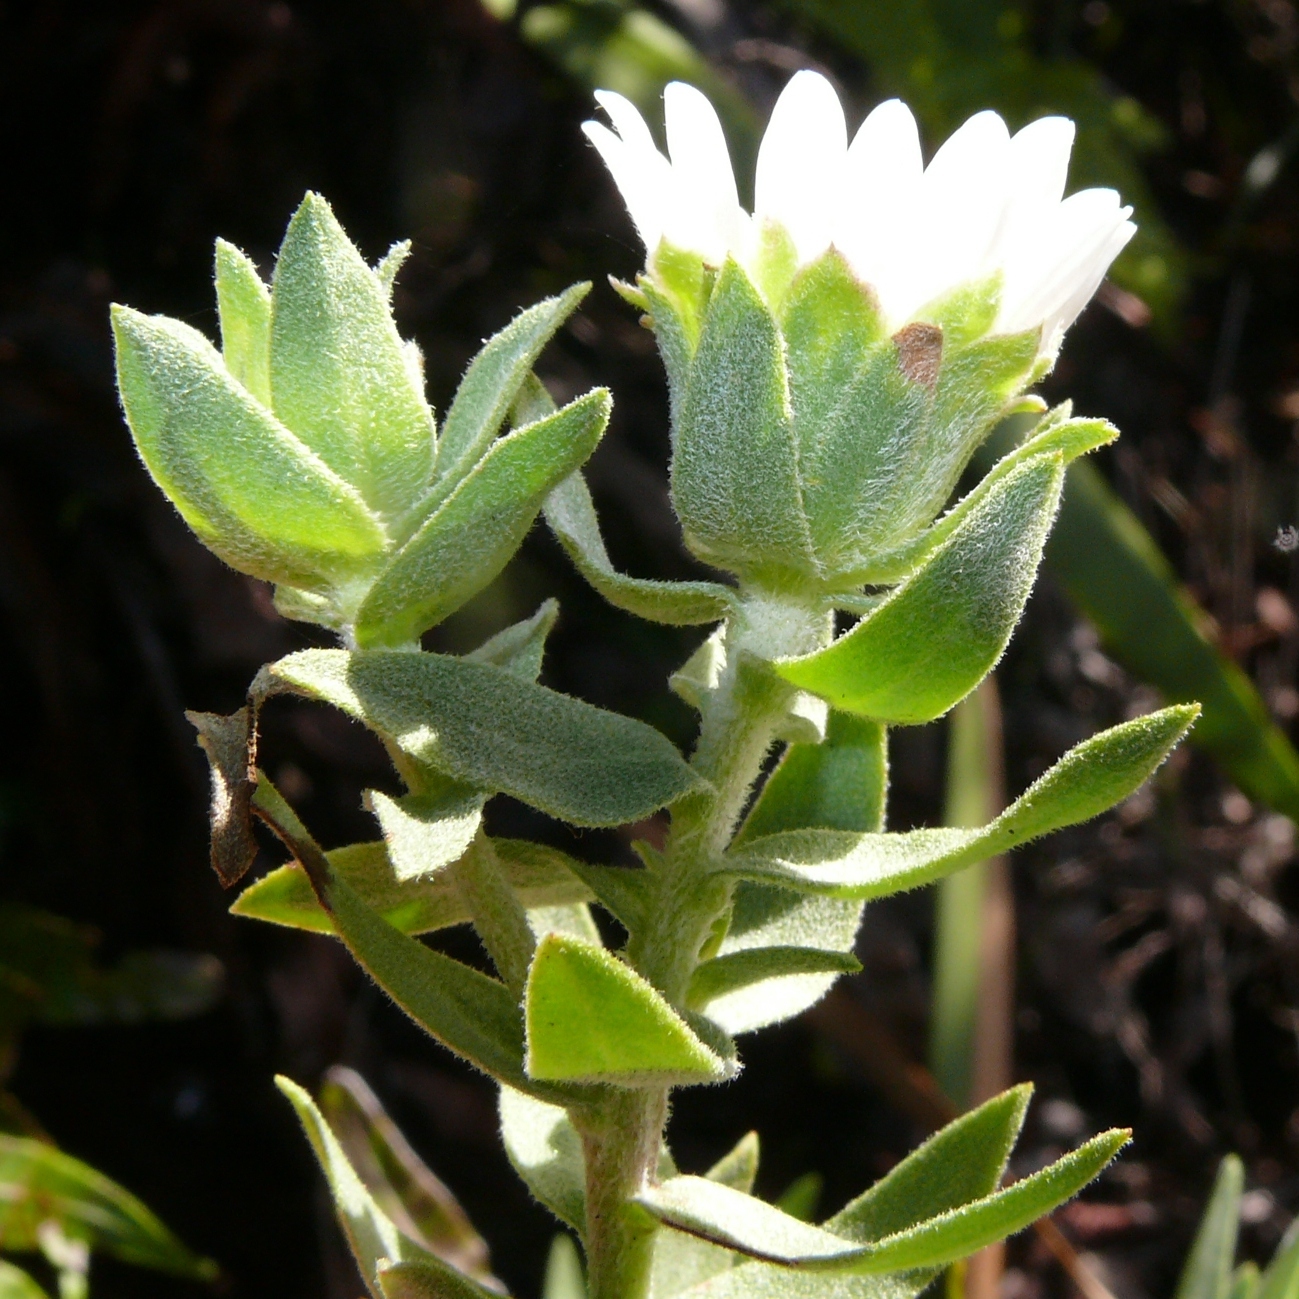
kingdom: Plantae
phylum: Tracheophyta
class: Magnoliopsida
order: Asterales
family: Asteraceae
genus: Osmitopsis
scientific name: Osmitopsis asteriscoides
